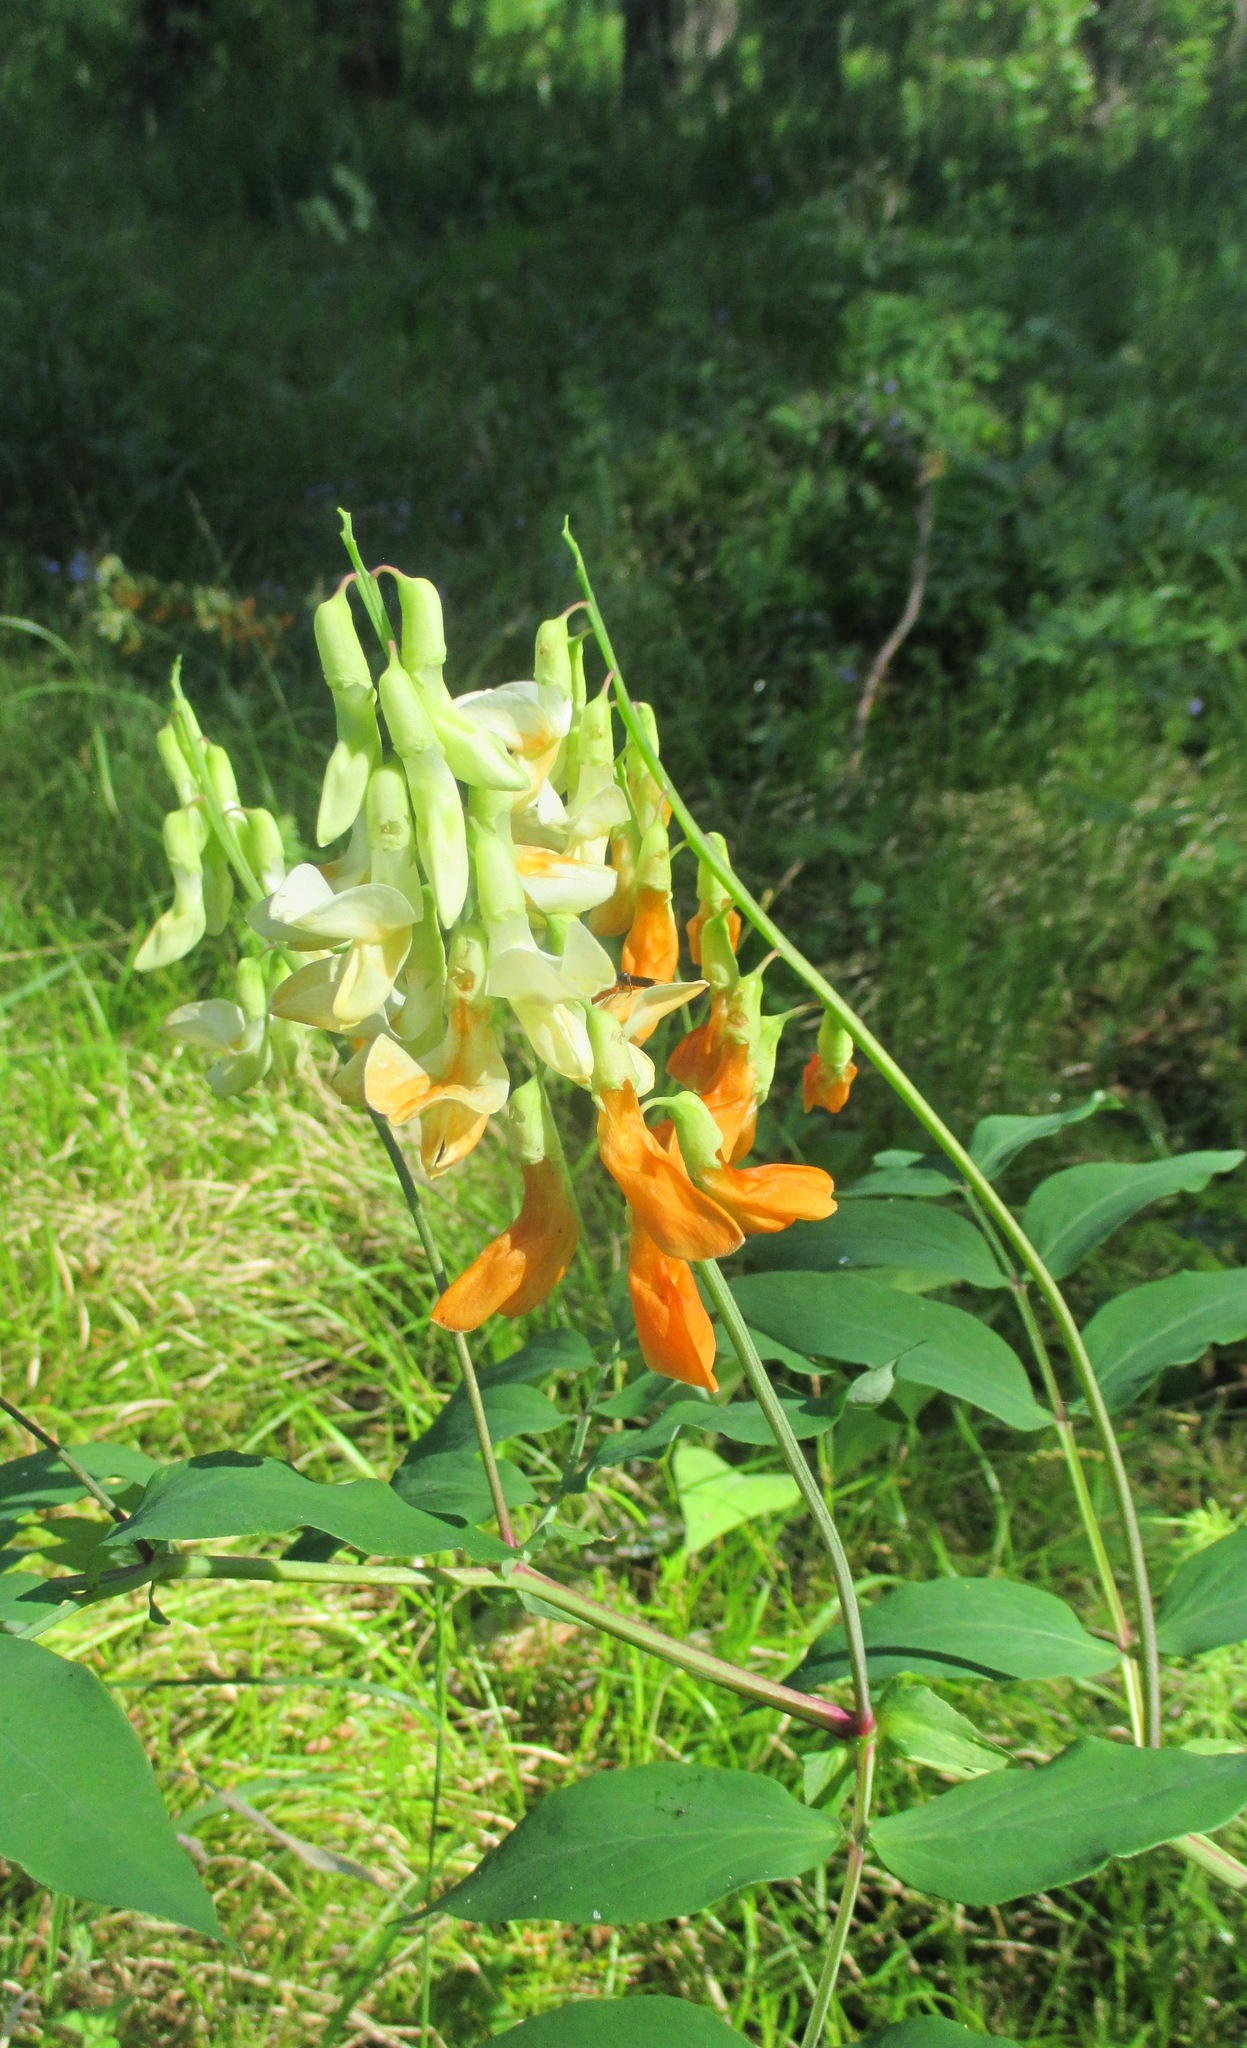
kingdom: Plantae
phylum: Tracheophyta
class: Magnoliopsida
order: Fabales
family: Fabaceae
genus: Lathyrus
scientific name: Lathyrus gmelinii
